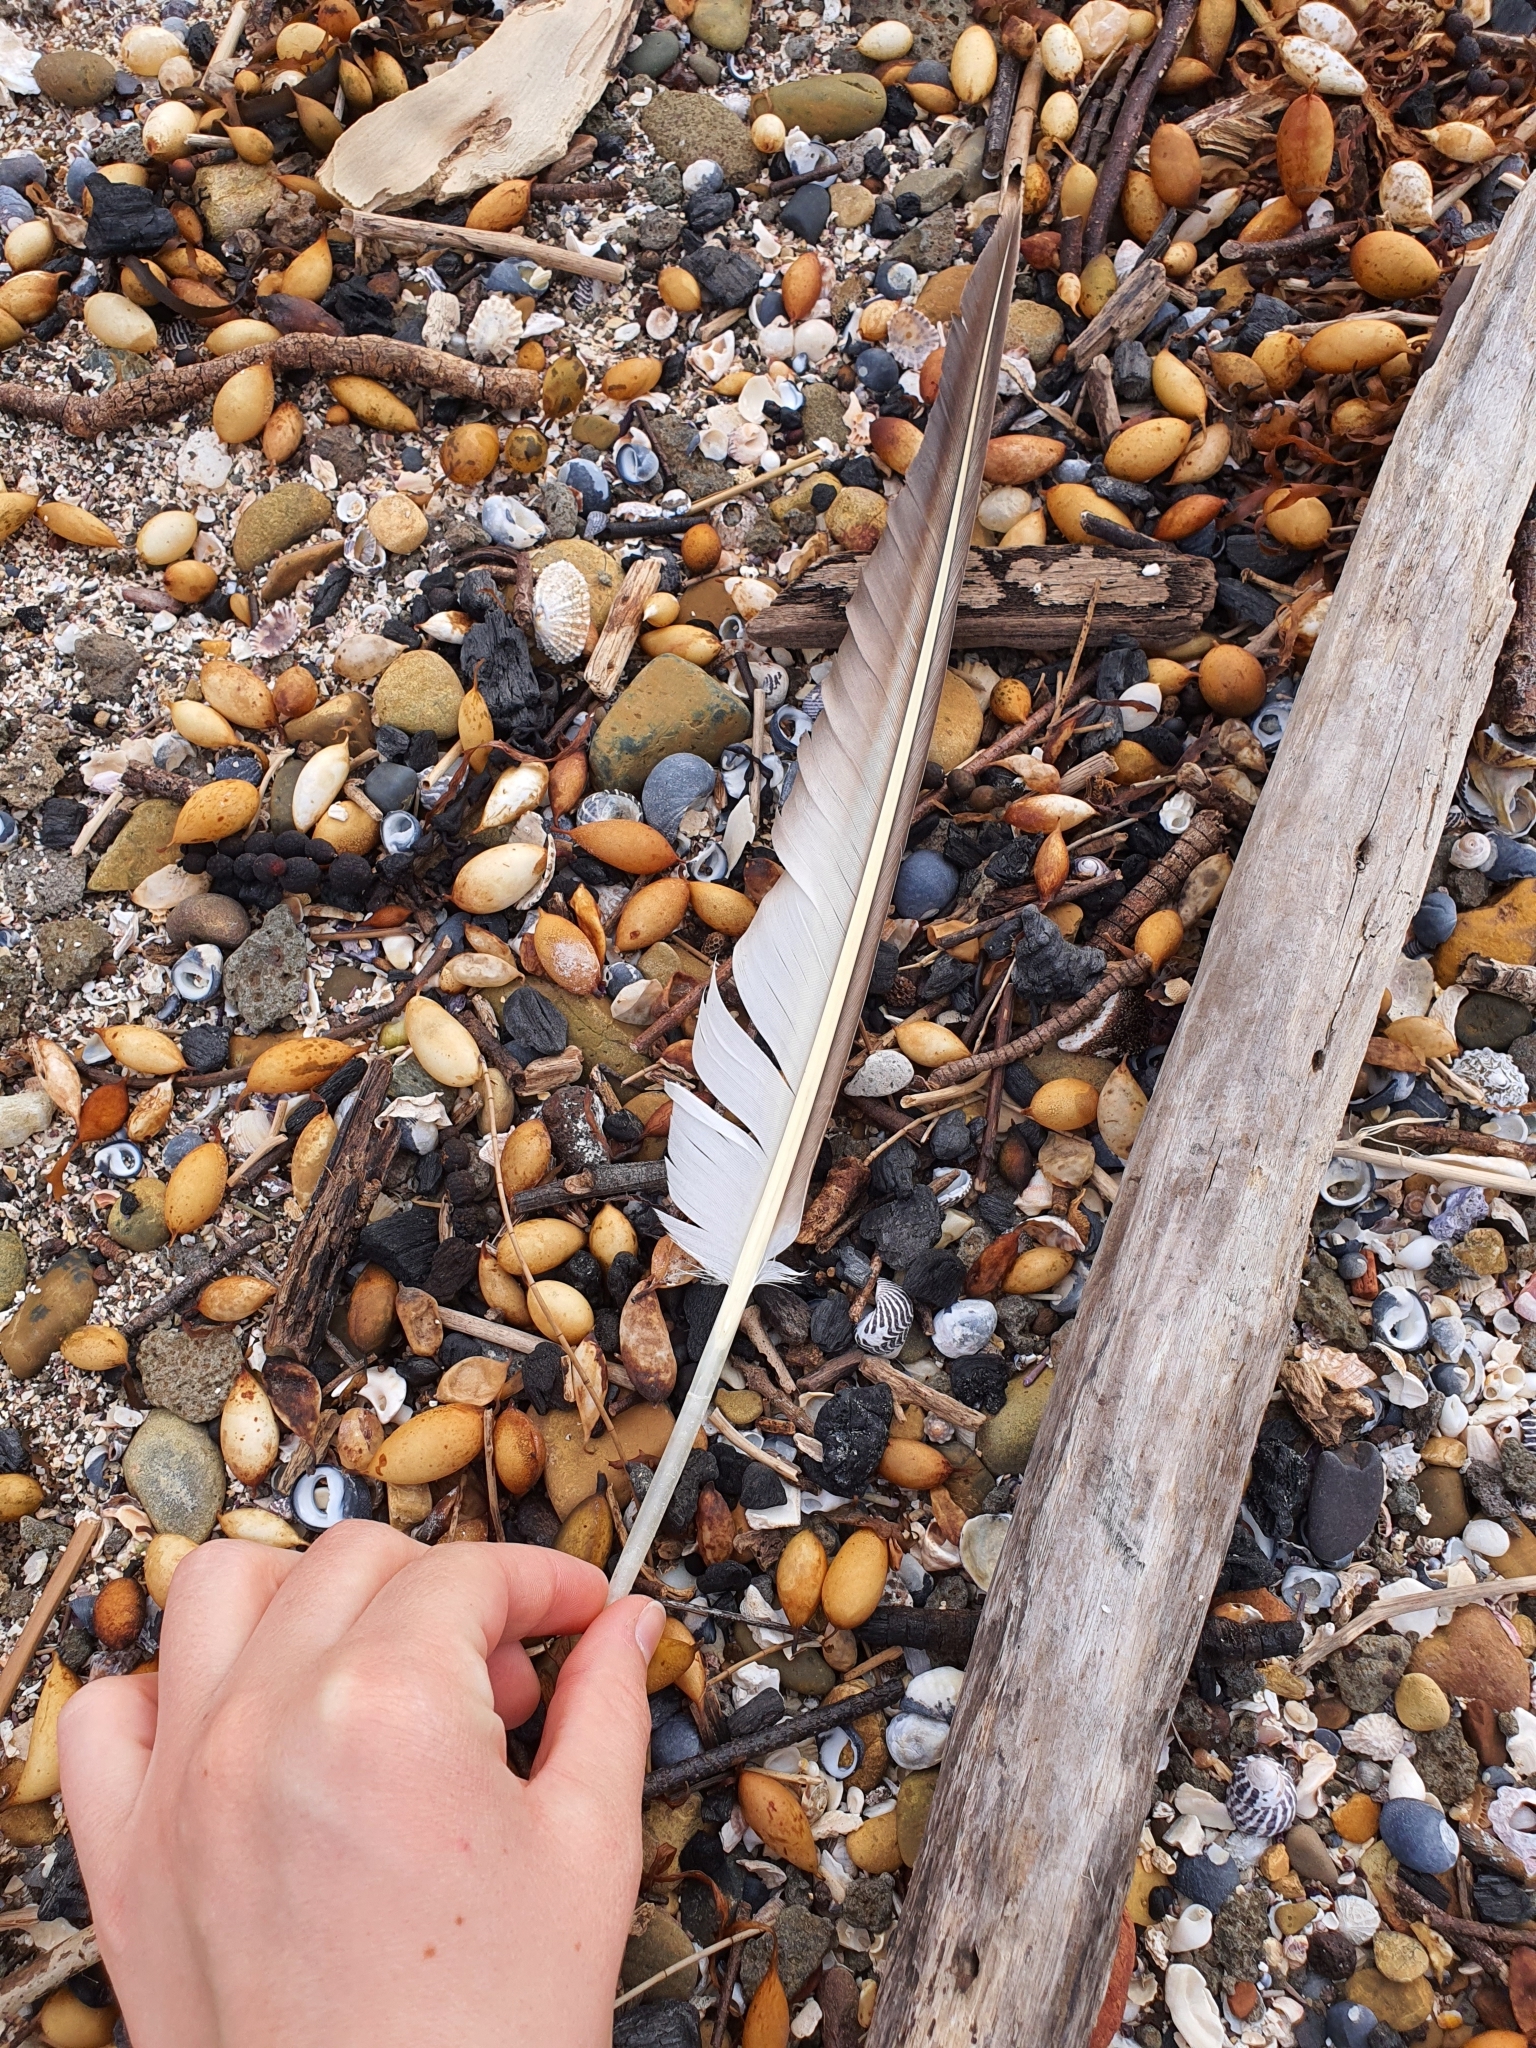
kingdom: Animalia
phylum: Chordata
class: Aves
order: Suliformes
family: Sulidae
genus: Morus
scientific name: Morus serrator
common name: Australasian gannet
